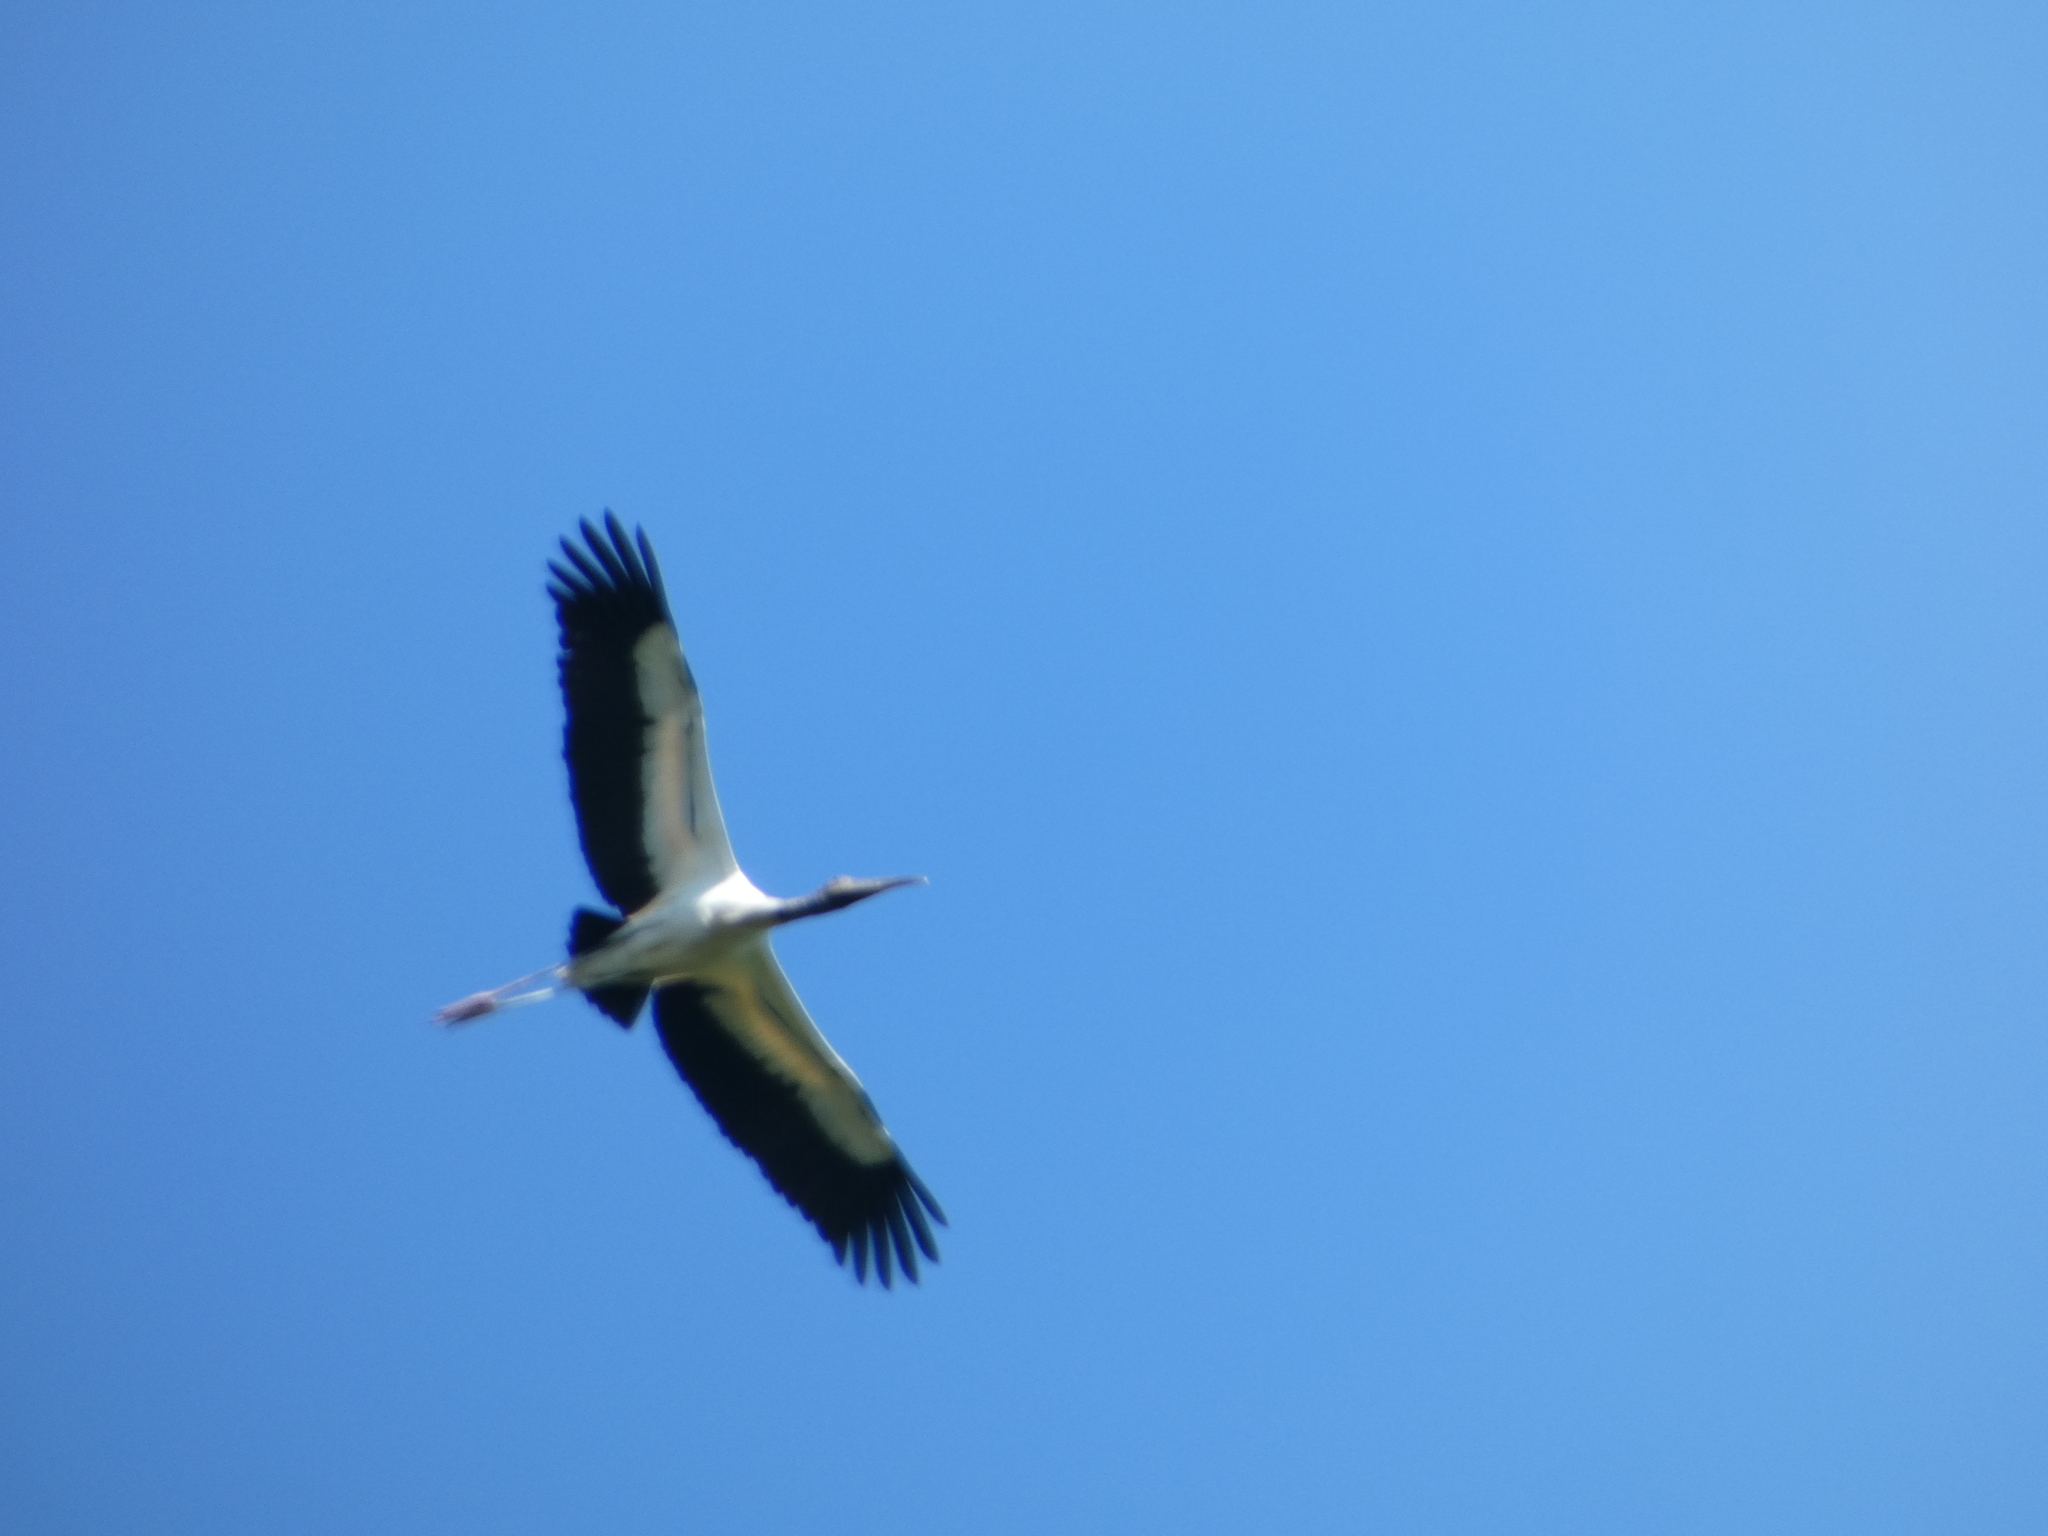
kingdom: Animalia
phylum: Chordata
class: Aves
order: Ciconiiformes
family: Ciconiidae
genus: Mycteria
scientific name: Mycteria americana
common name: Wood stork
